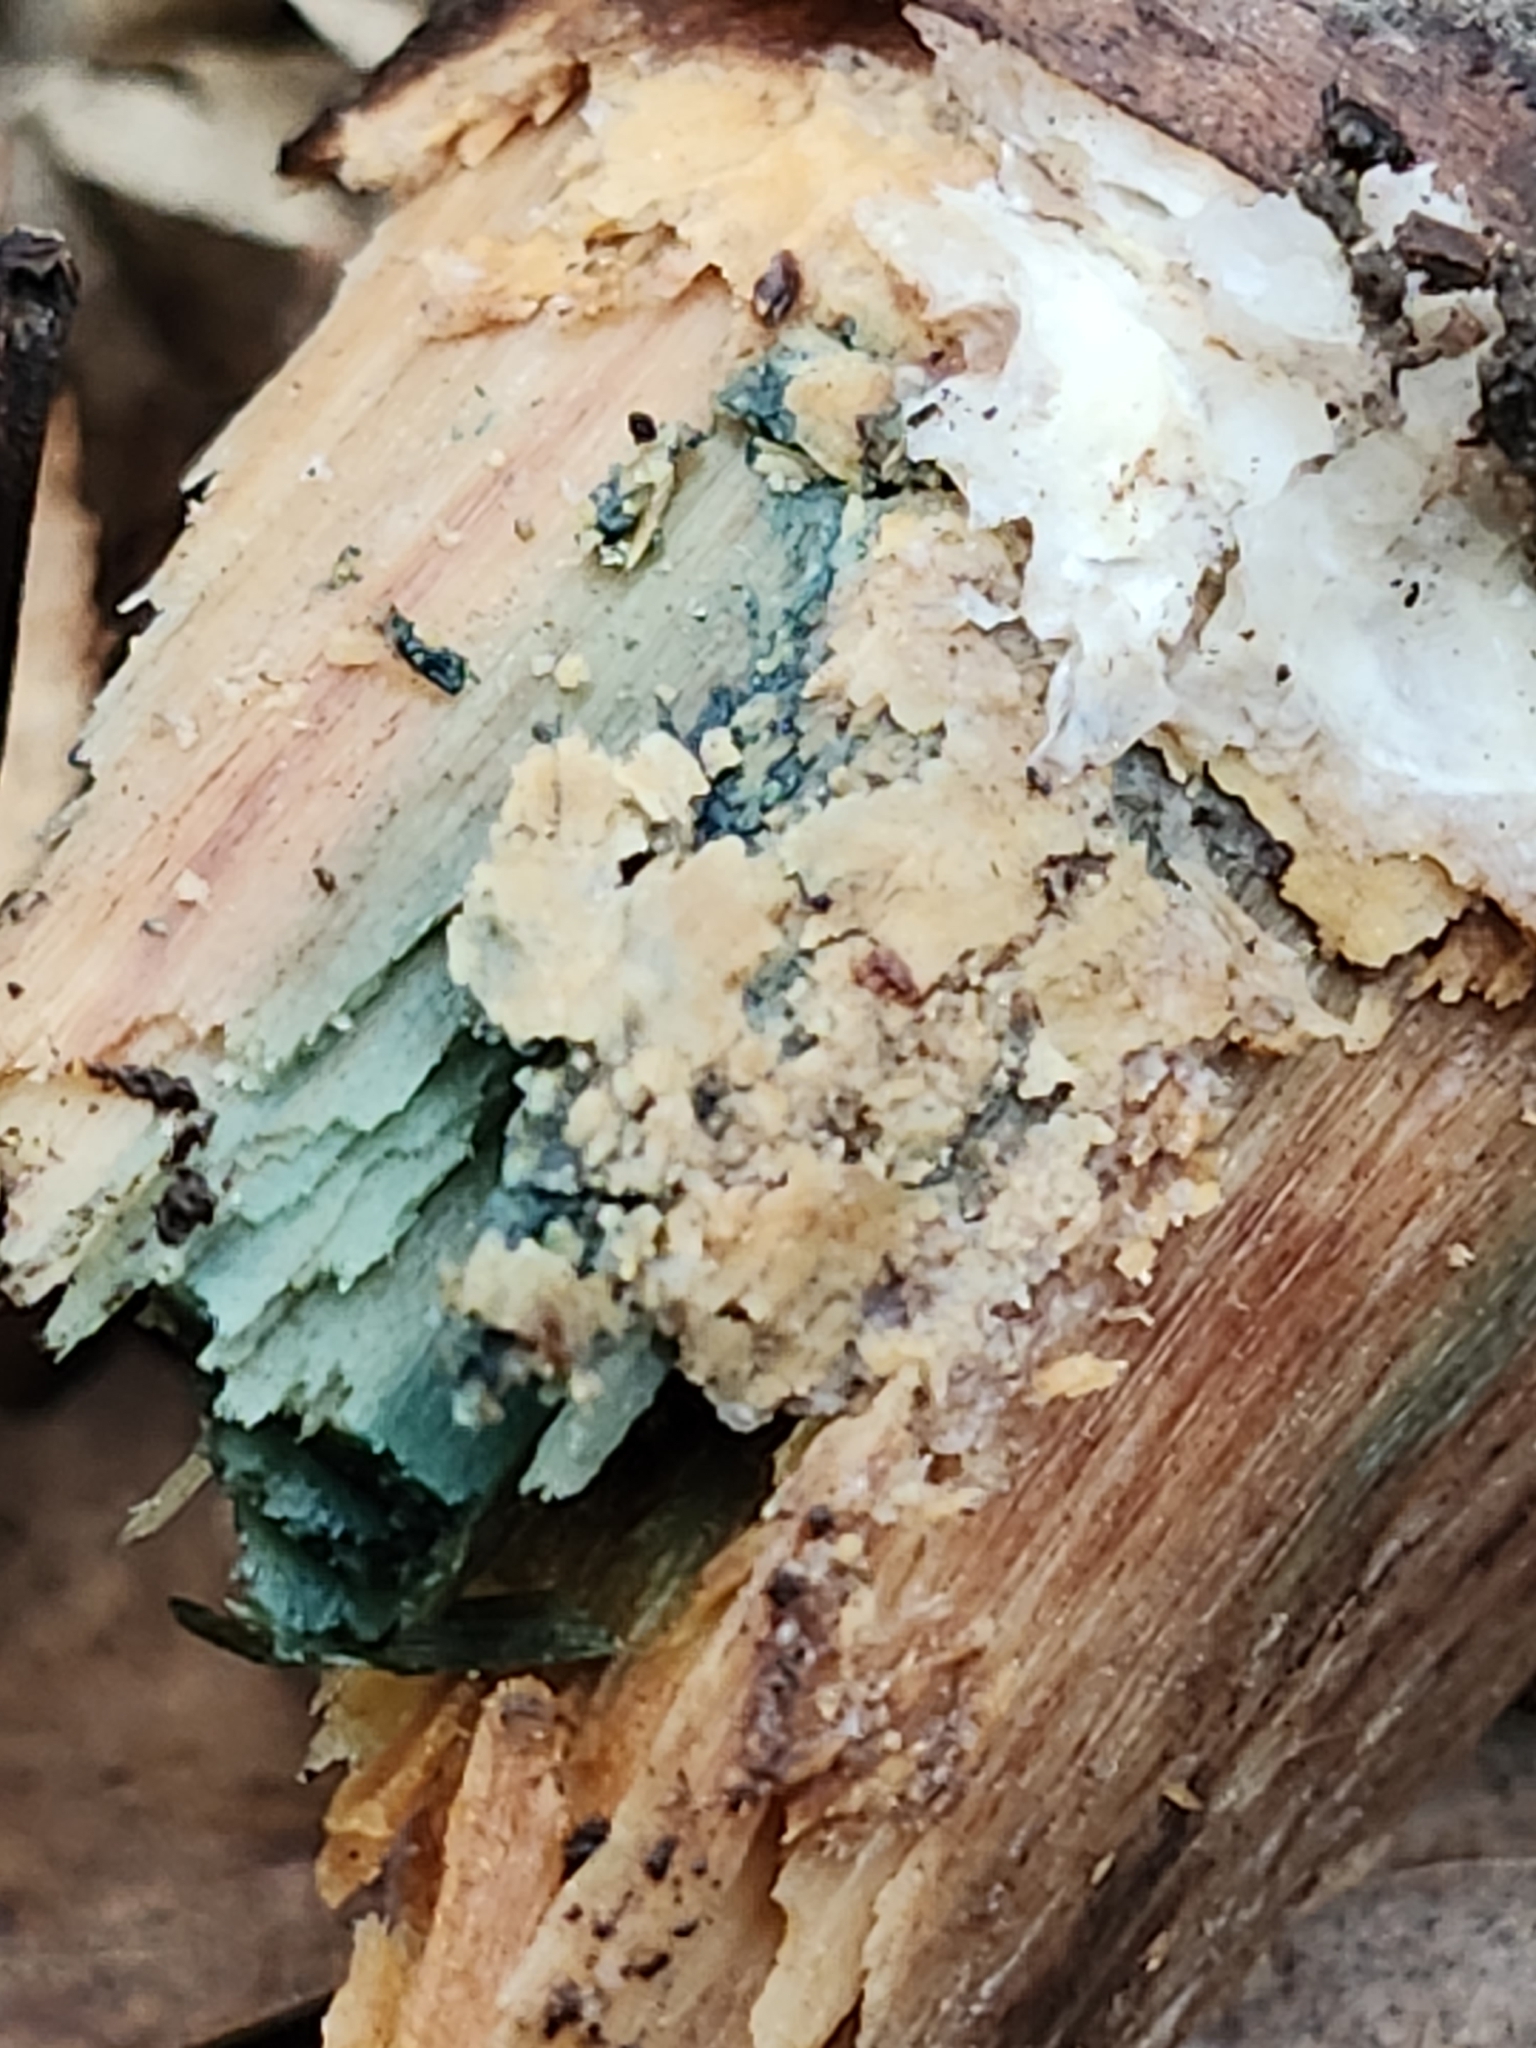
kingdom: Fungi
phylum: Ascomycota
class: Leotiomycetes
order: Helotiales
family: Chlorociboriaceae
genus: Chlorociboria
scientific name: Chlorociboria
